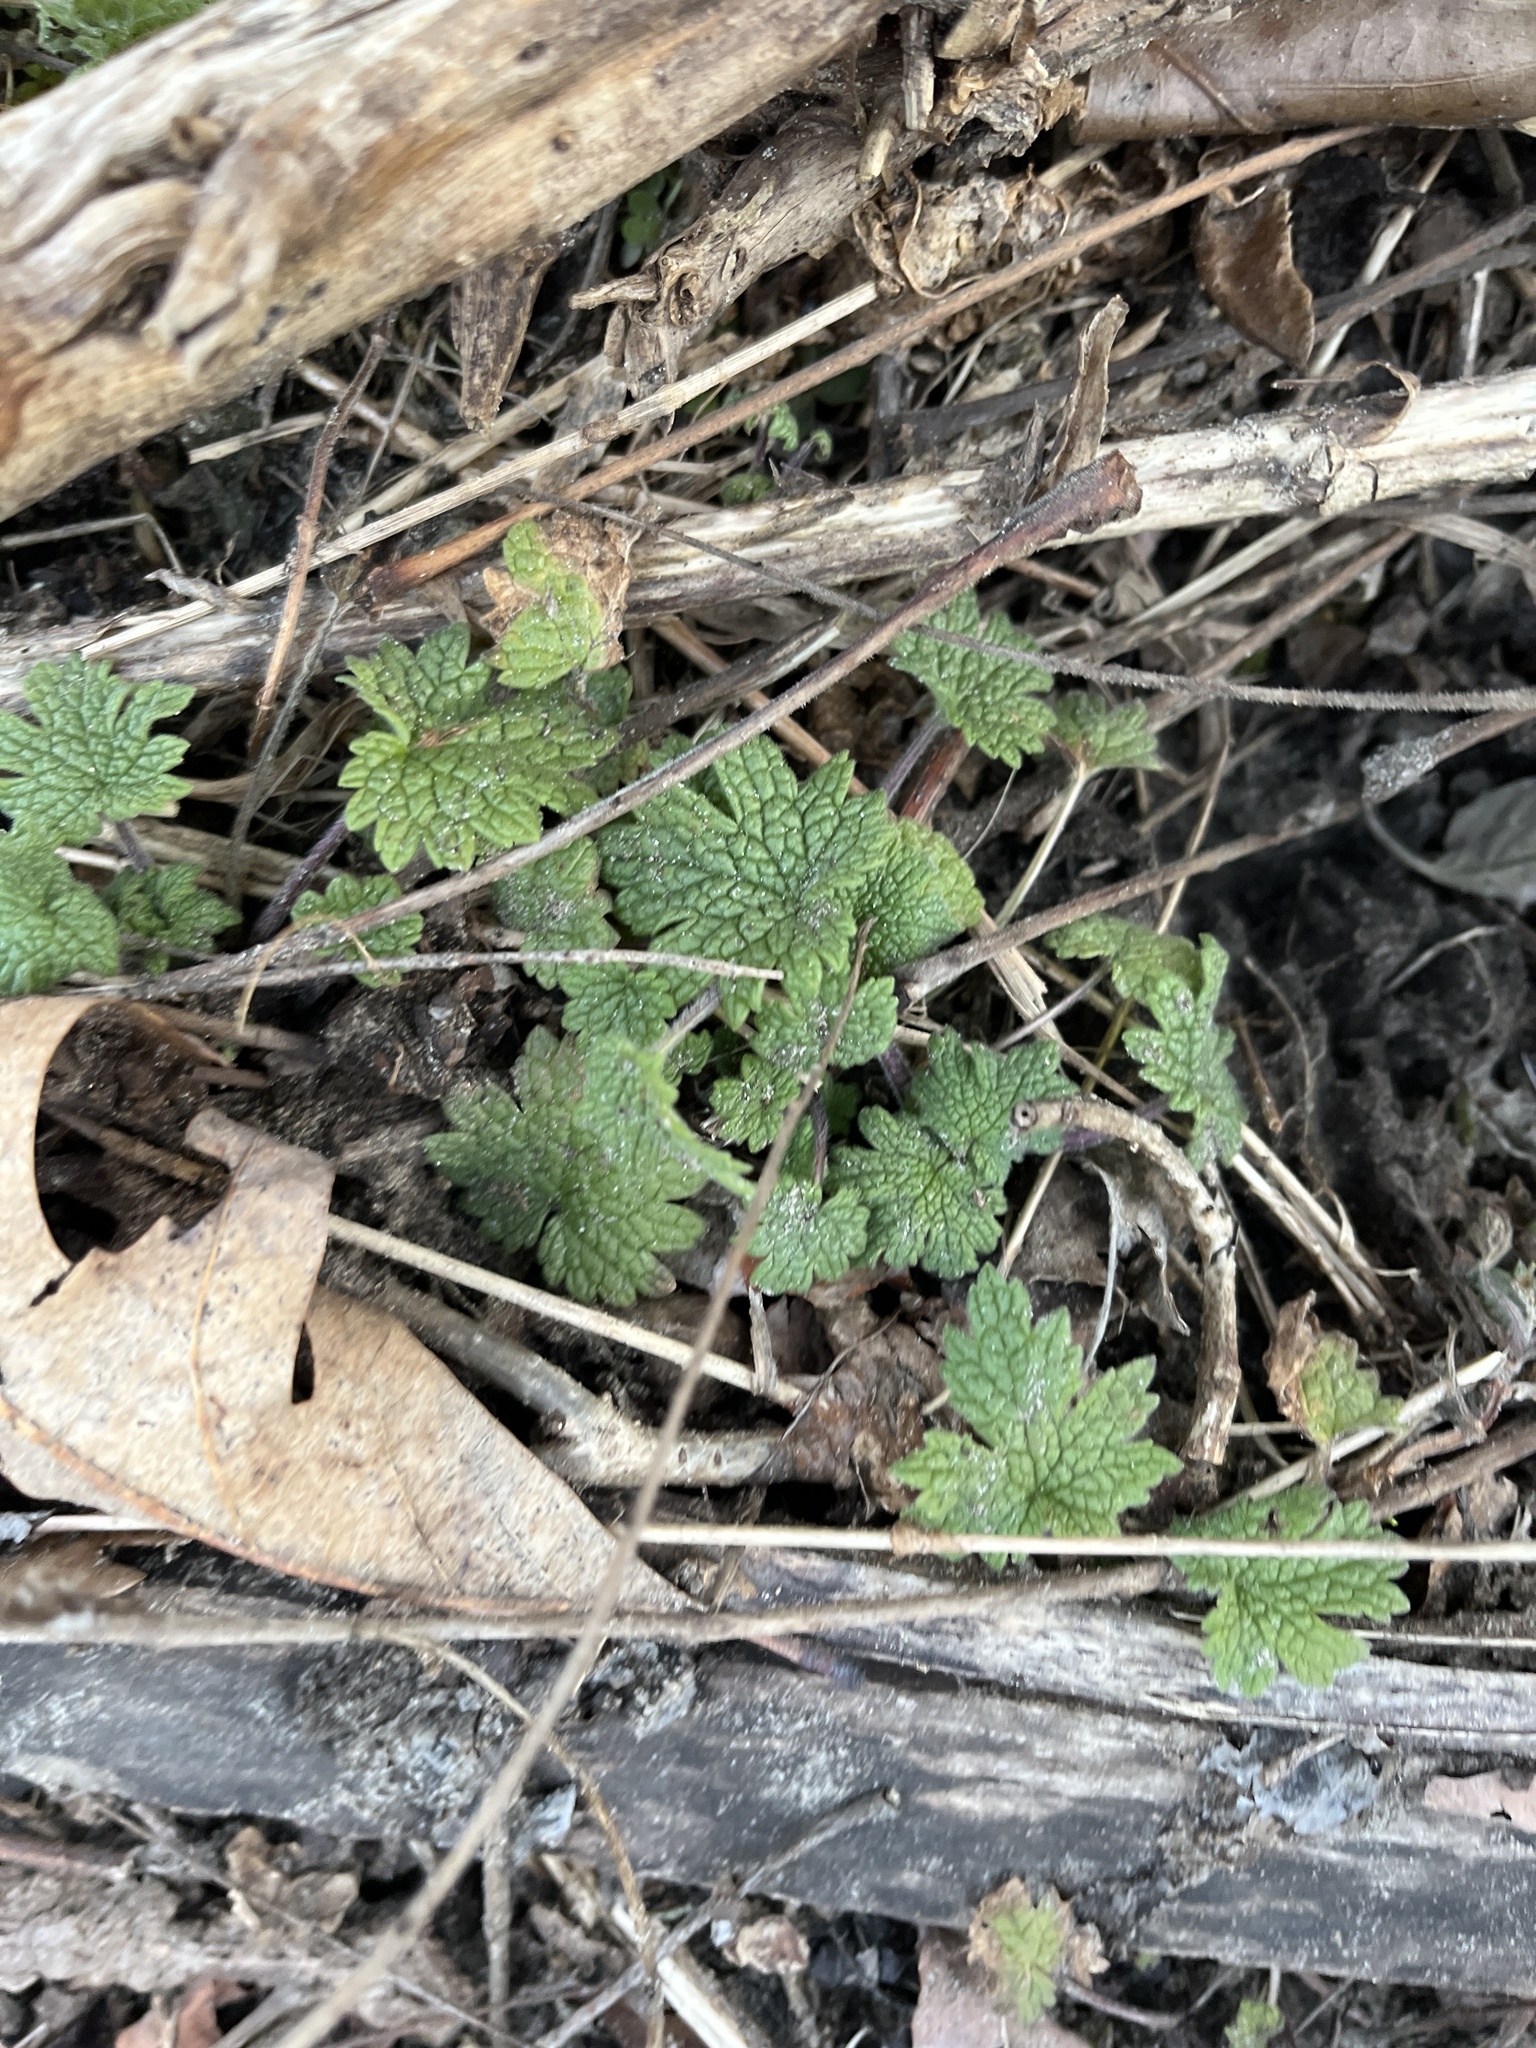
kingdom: Plantae
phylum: Tracheophyta
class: Magnoliopsida
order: Lamiales
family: Lamiaceae
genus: Leonurus
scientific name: Leonurus cardiaca
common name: Motherwort
